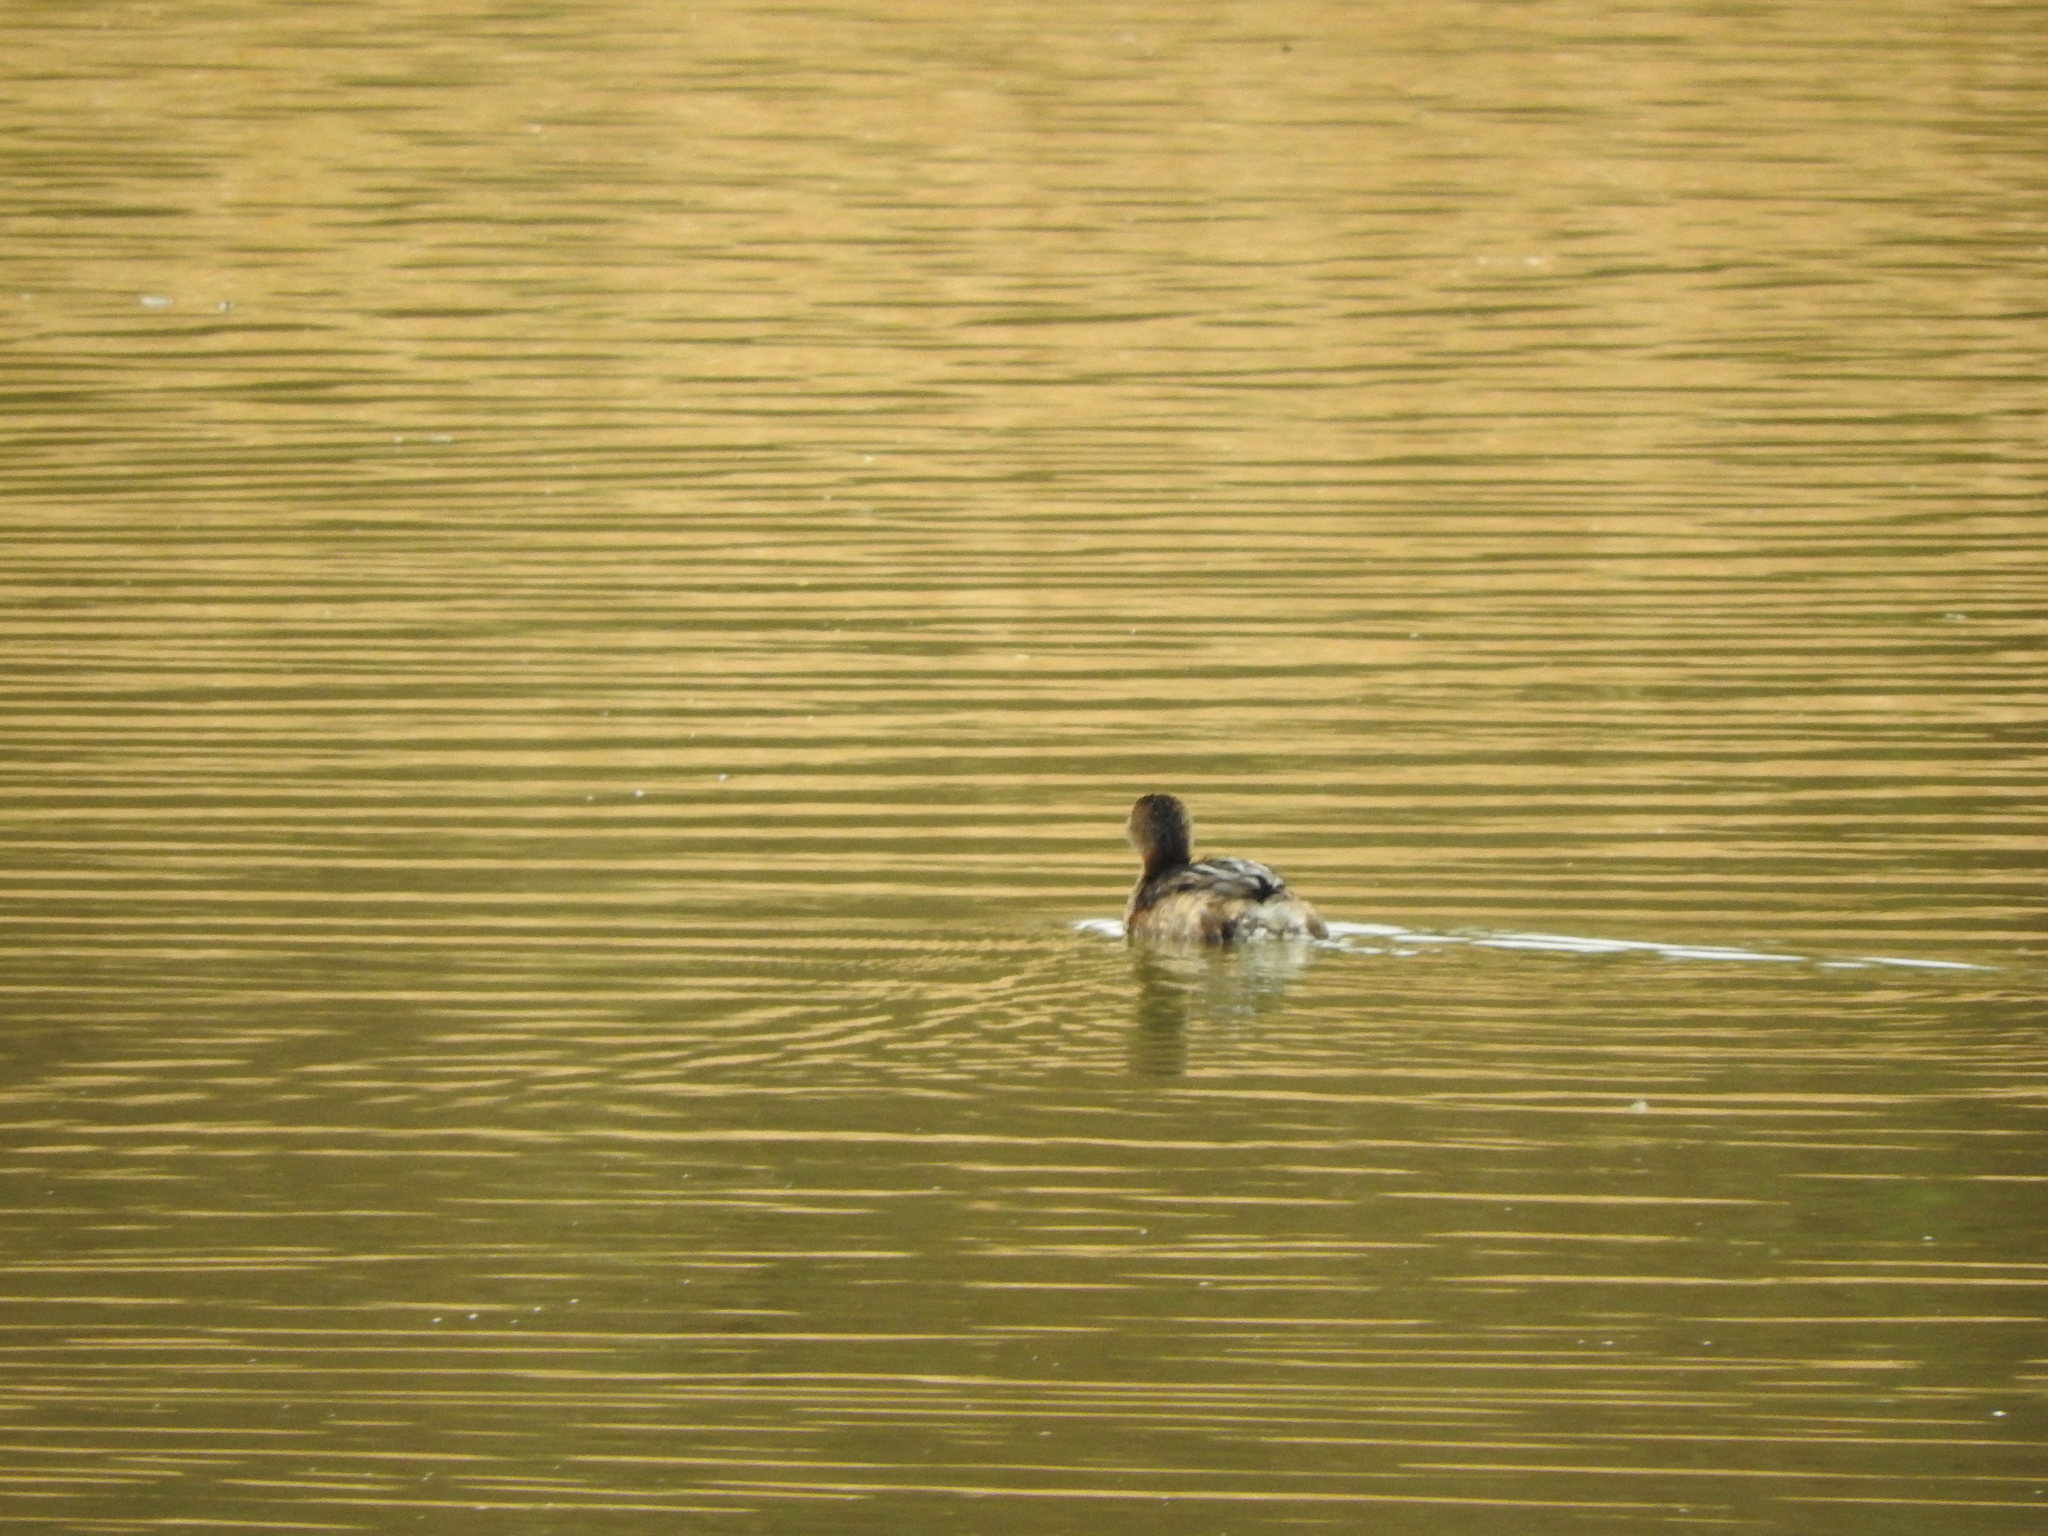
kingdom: Animalia
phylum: Chordata
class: Aves
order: Podicipediformes
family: Podicipedidae
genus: Podilymbus
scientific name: Podilymbus podiceps
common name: Pied-billed grebe
